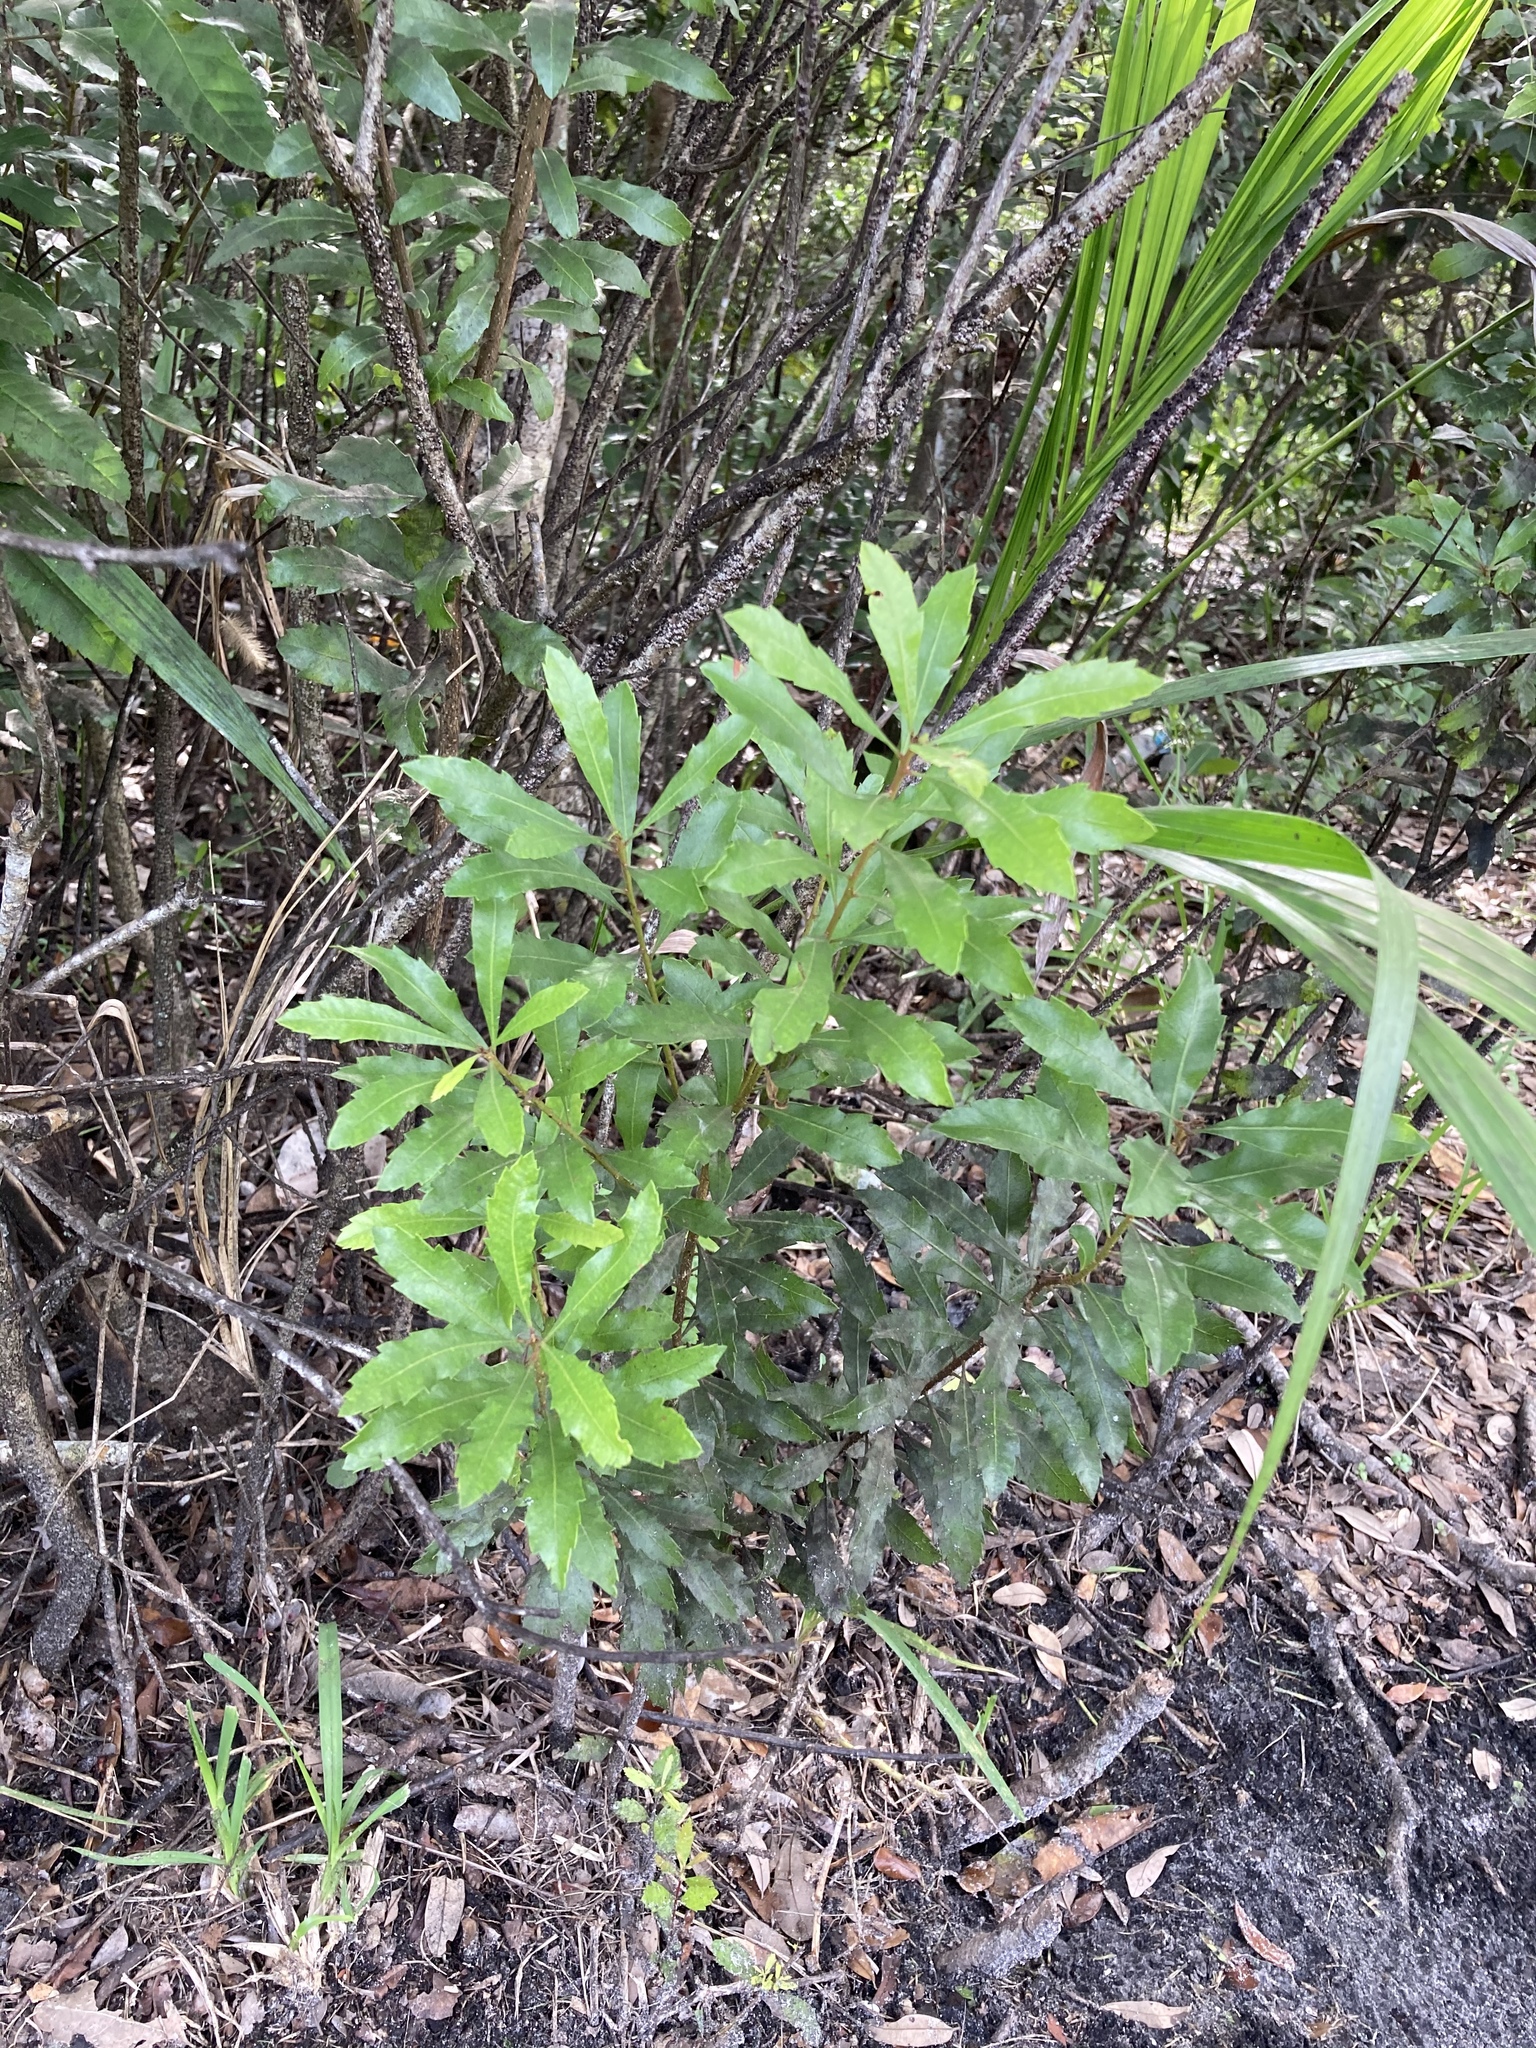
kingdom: Plantae
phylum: Tracheophyta
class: Magnoliopsida
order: Fagales
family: Myricaceae
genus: Morella
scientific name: Morella cerifera
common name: Wax myrtle
